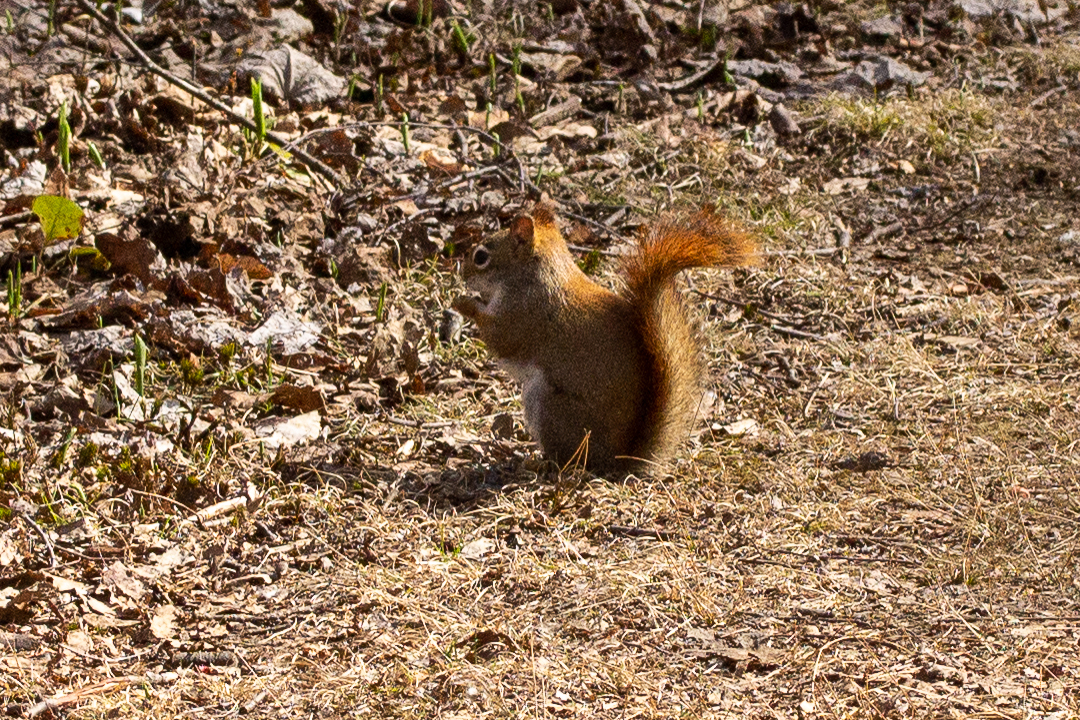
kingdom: Animalia
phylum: Chordata
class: Mammalia
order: Rodentia
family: Sciuridae
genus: Tamiasciurus
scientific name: Tamiasciurus hudsonicus
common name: Red squirrel
